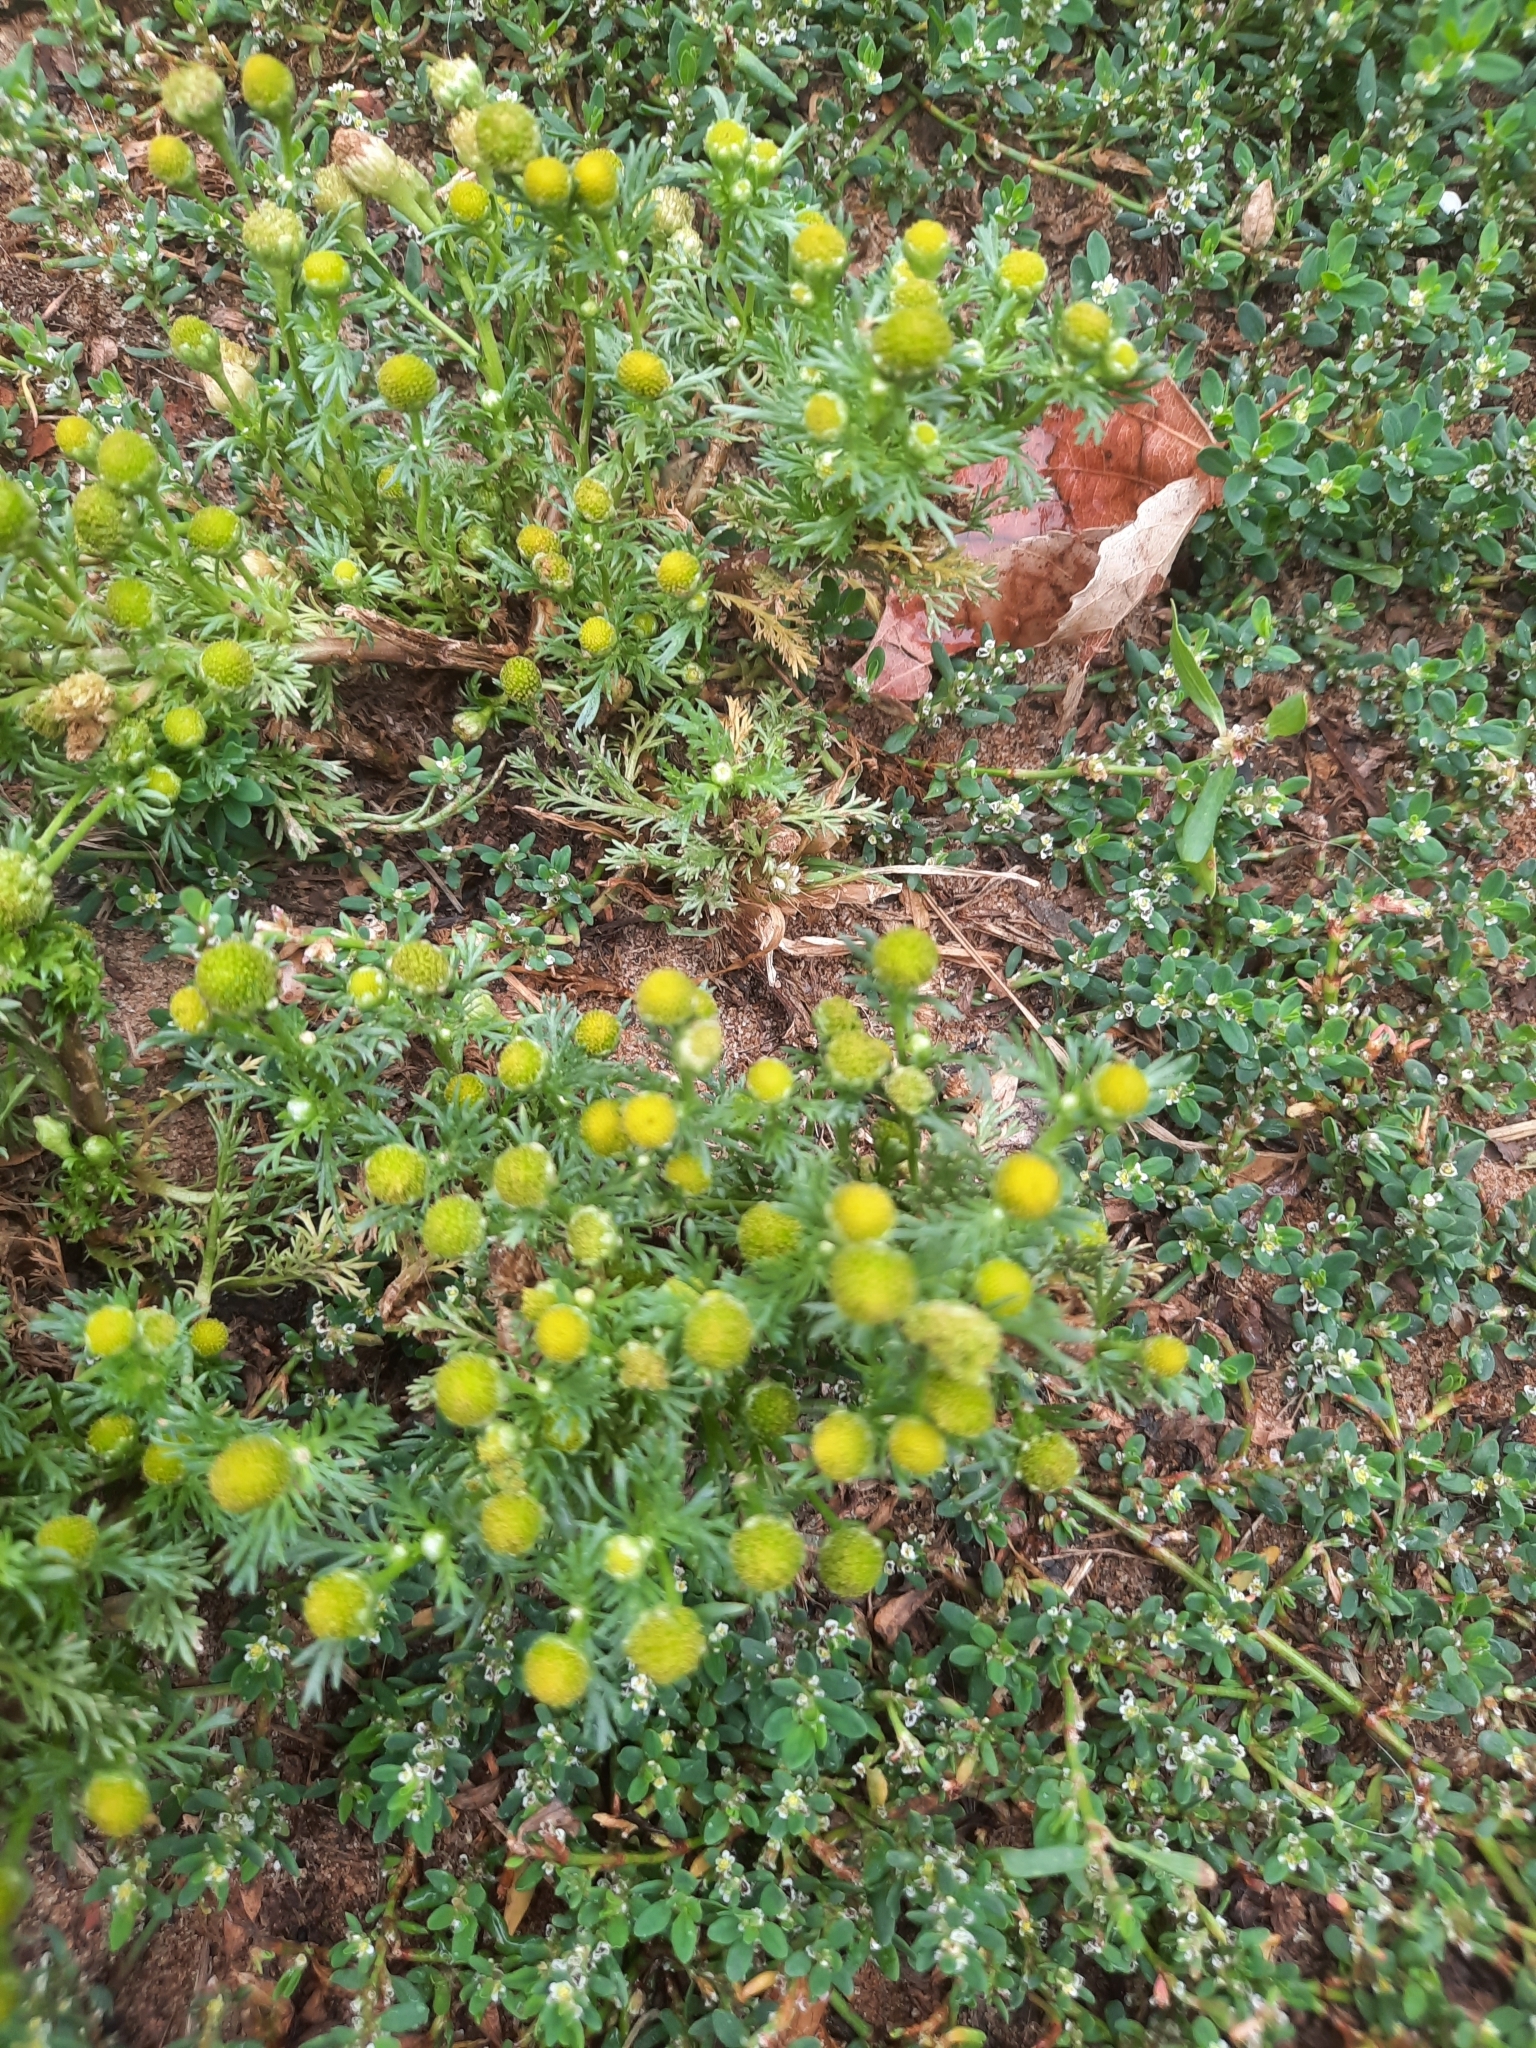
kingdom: Plantae
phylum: Tracheophyta
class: Magnoliopsida
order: Asterales
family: Asteraceae
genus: Matricaria
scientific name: Matricaria discoidea
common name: Disc mayweed
